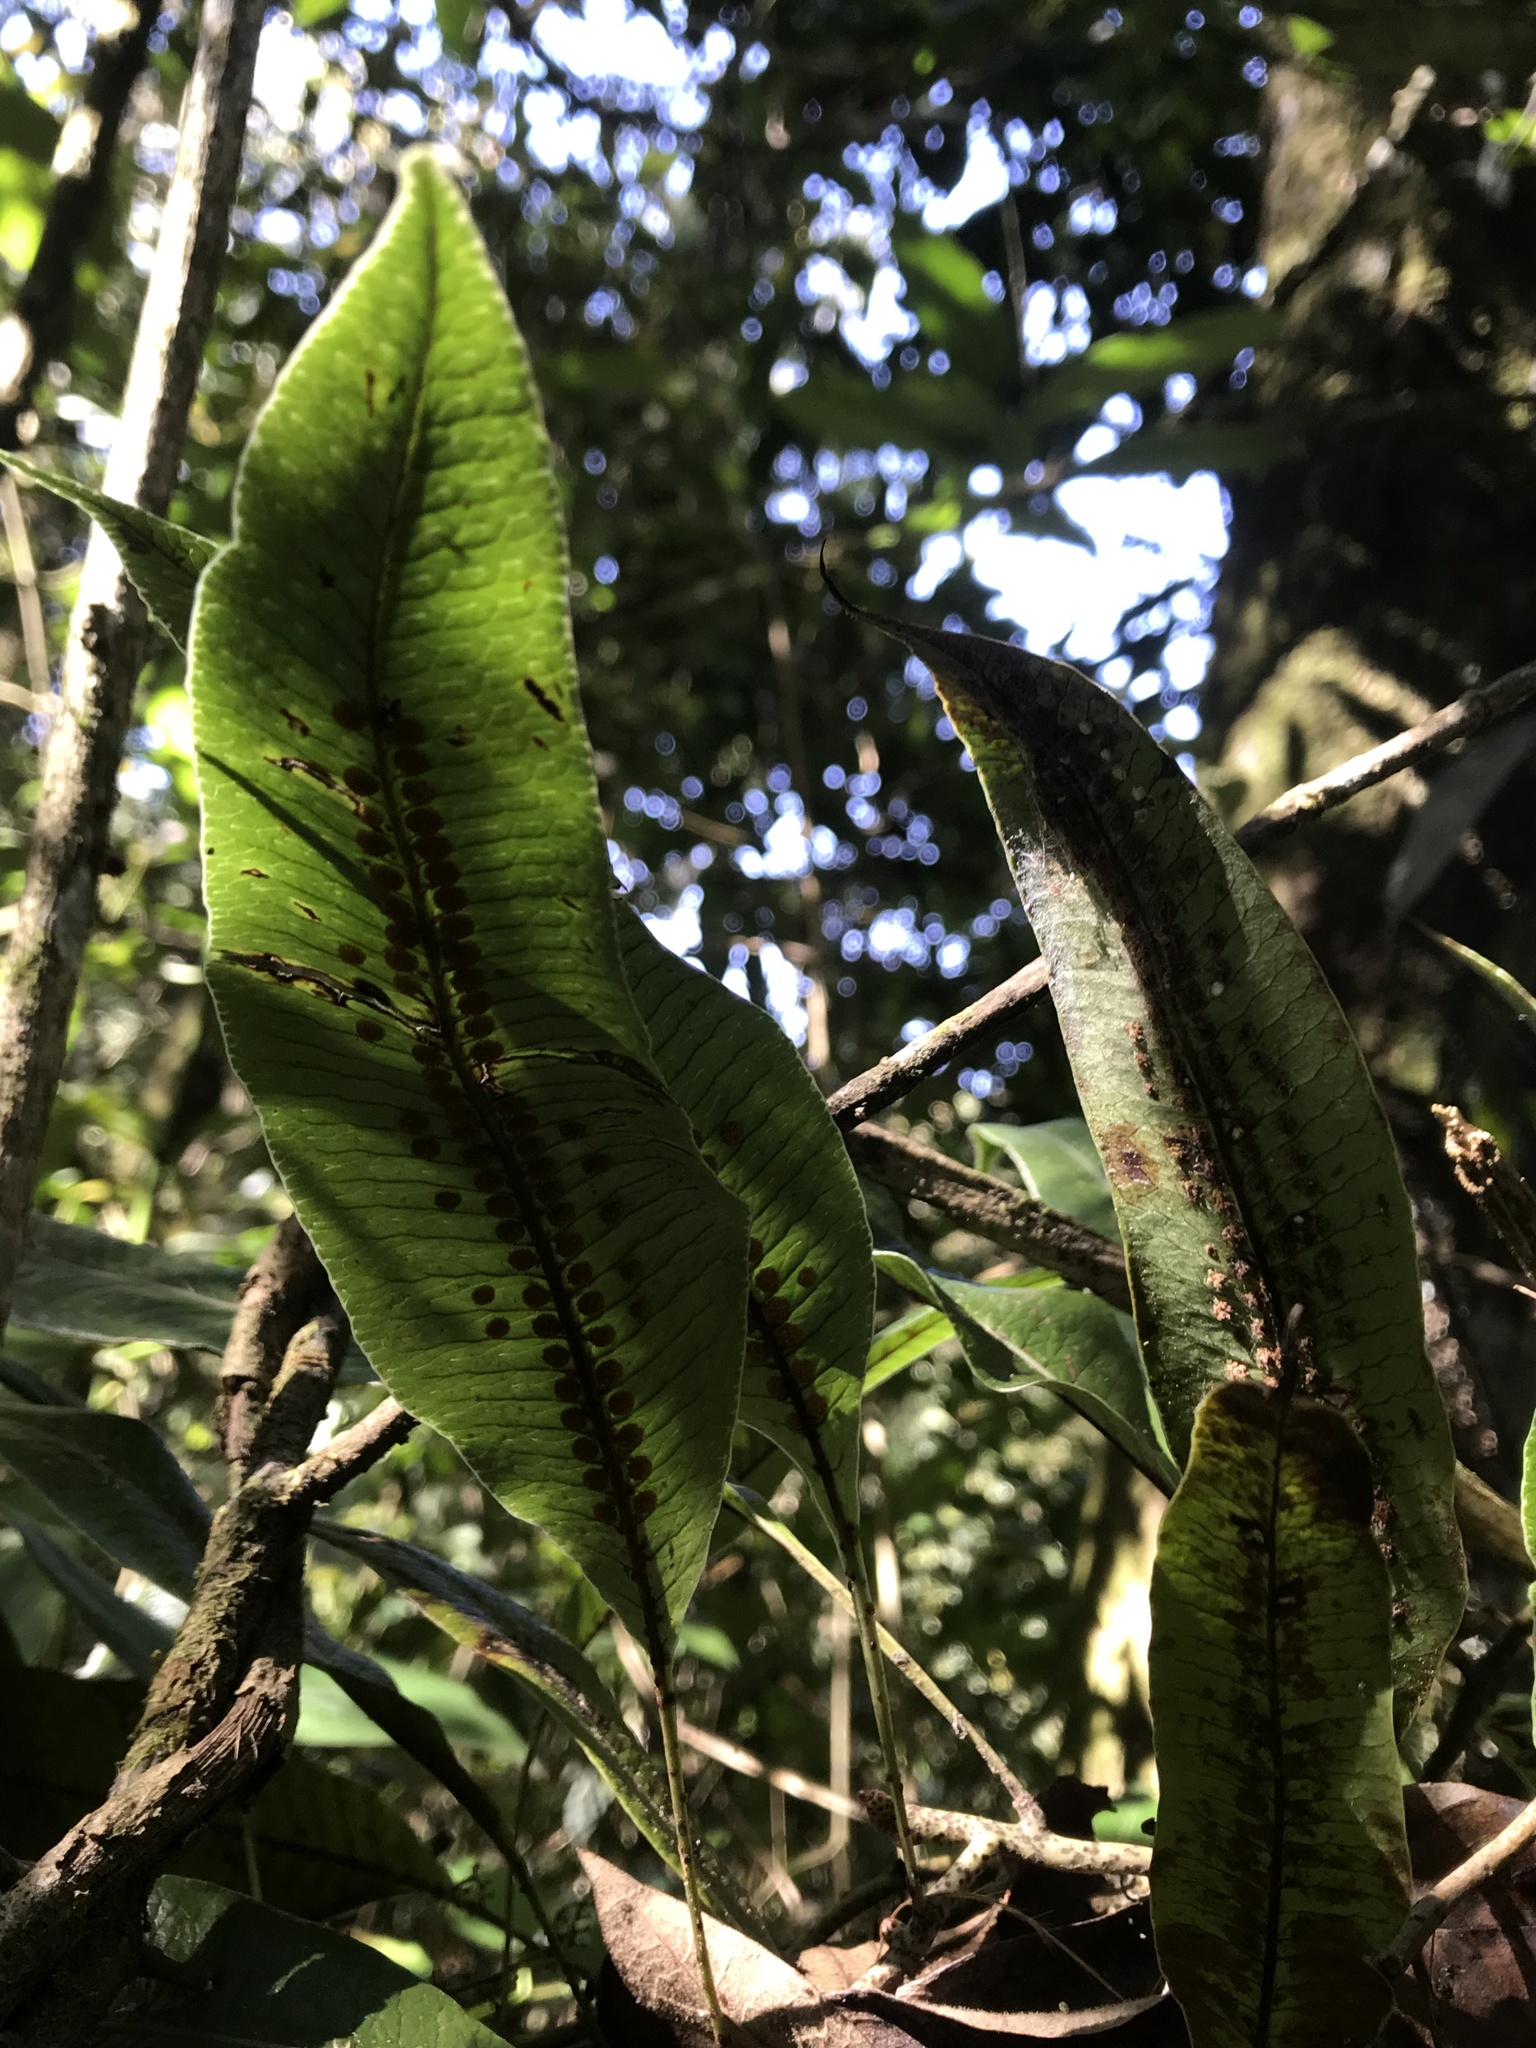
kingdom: Plantae
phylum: Tracheophyta
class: Polypodiopsida
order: Polypodiales
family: Polypodiaceae
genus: Serpocaulon
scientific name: Serpocaulon levigatum
